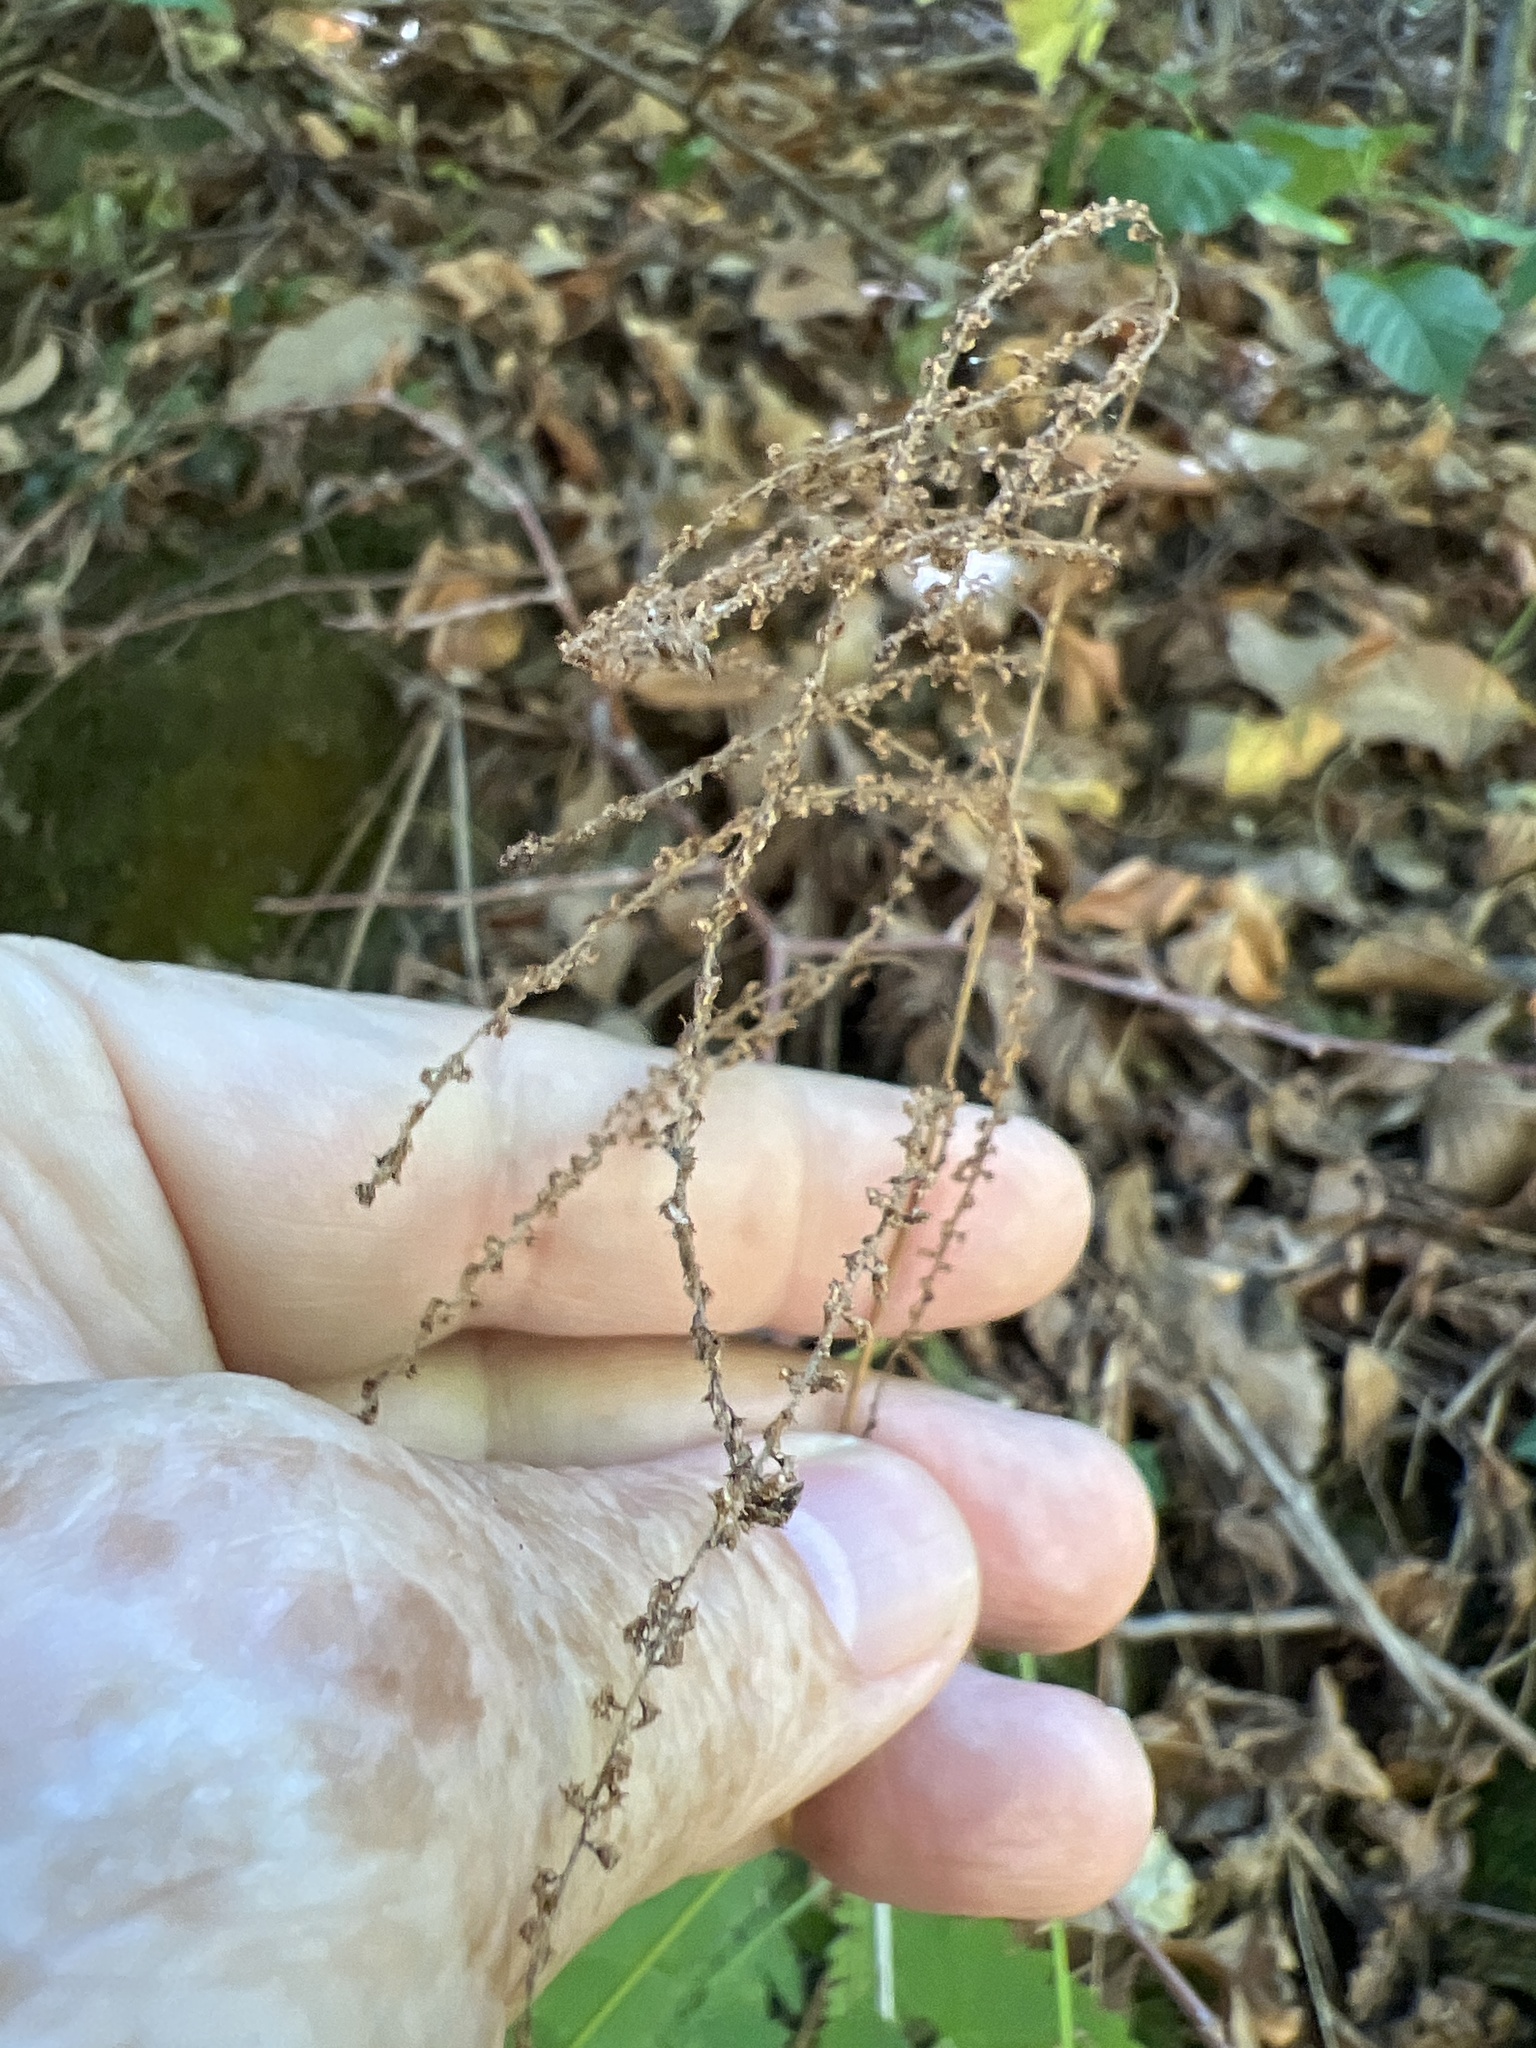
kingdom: Plantae
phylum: Tracheophyta
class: Magnoliopsida
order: Rosales
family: Rosaceae
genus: Aruncus
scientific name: Aruncus dioicus
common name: Buck's-beard
